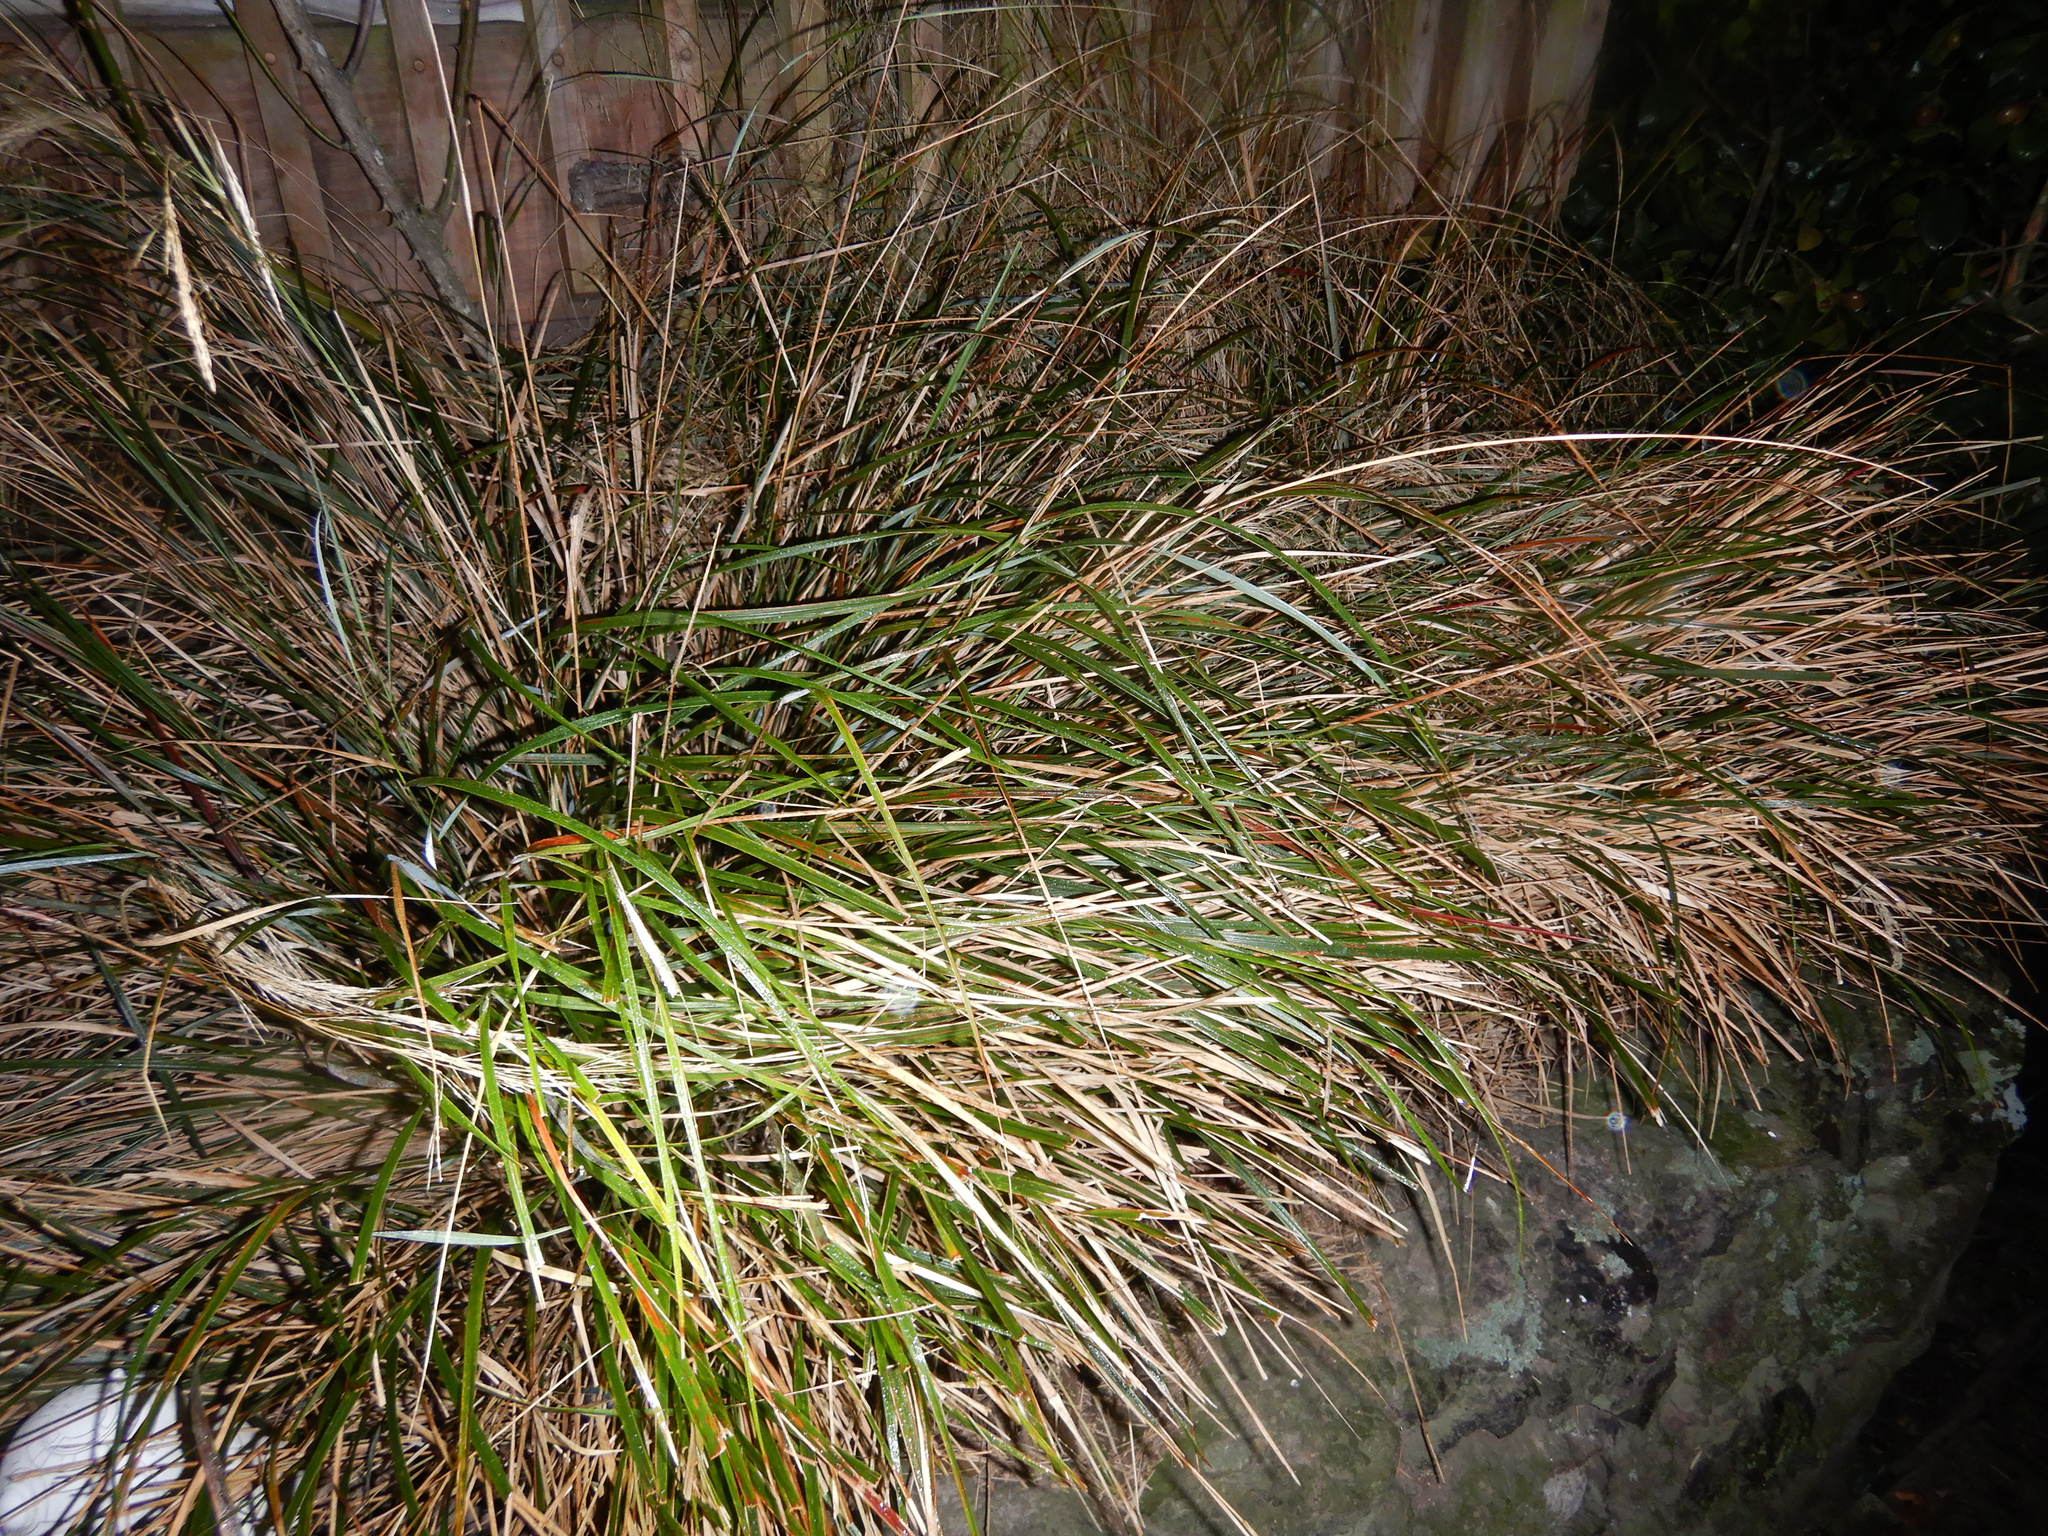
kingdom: Plantae
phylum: Tracheophyta
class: Liliopsida
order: Poales
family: Poaceae
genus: Anemanthele
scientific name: Anemanthele lessoniana
